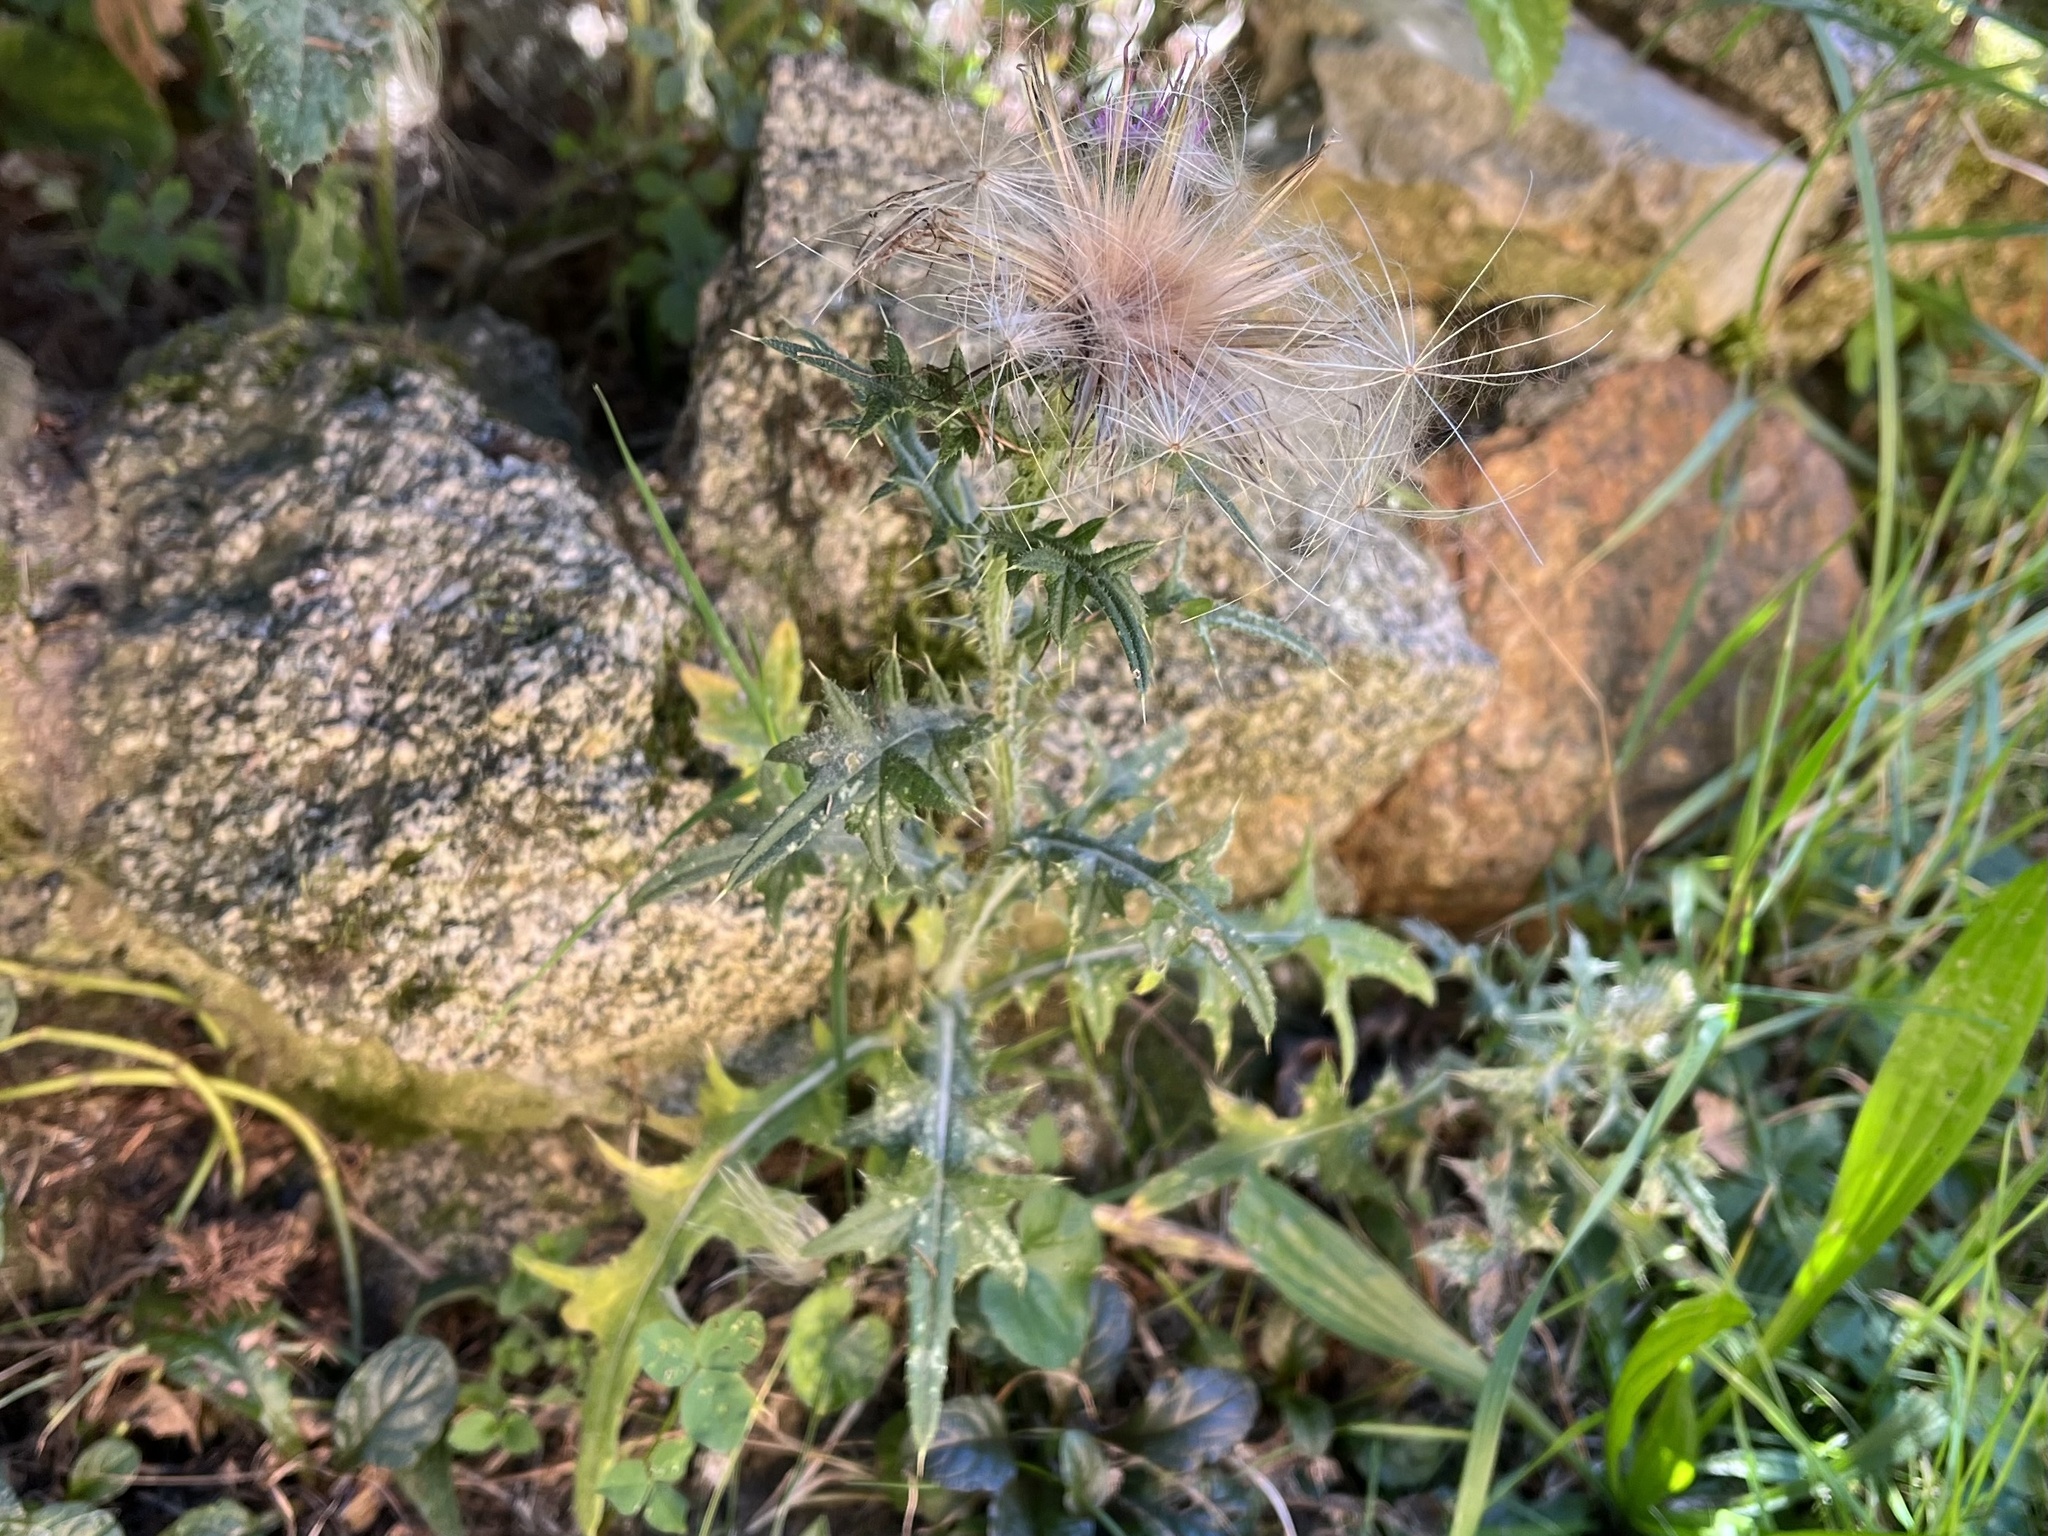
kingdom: Plantae
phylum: Tracheophyta
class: Magnoliopsida
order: Asterales
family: Asteraceae
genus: Cirsium
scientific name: Cirsium vulgare
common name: Bull thistle
